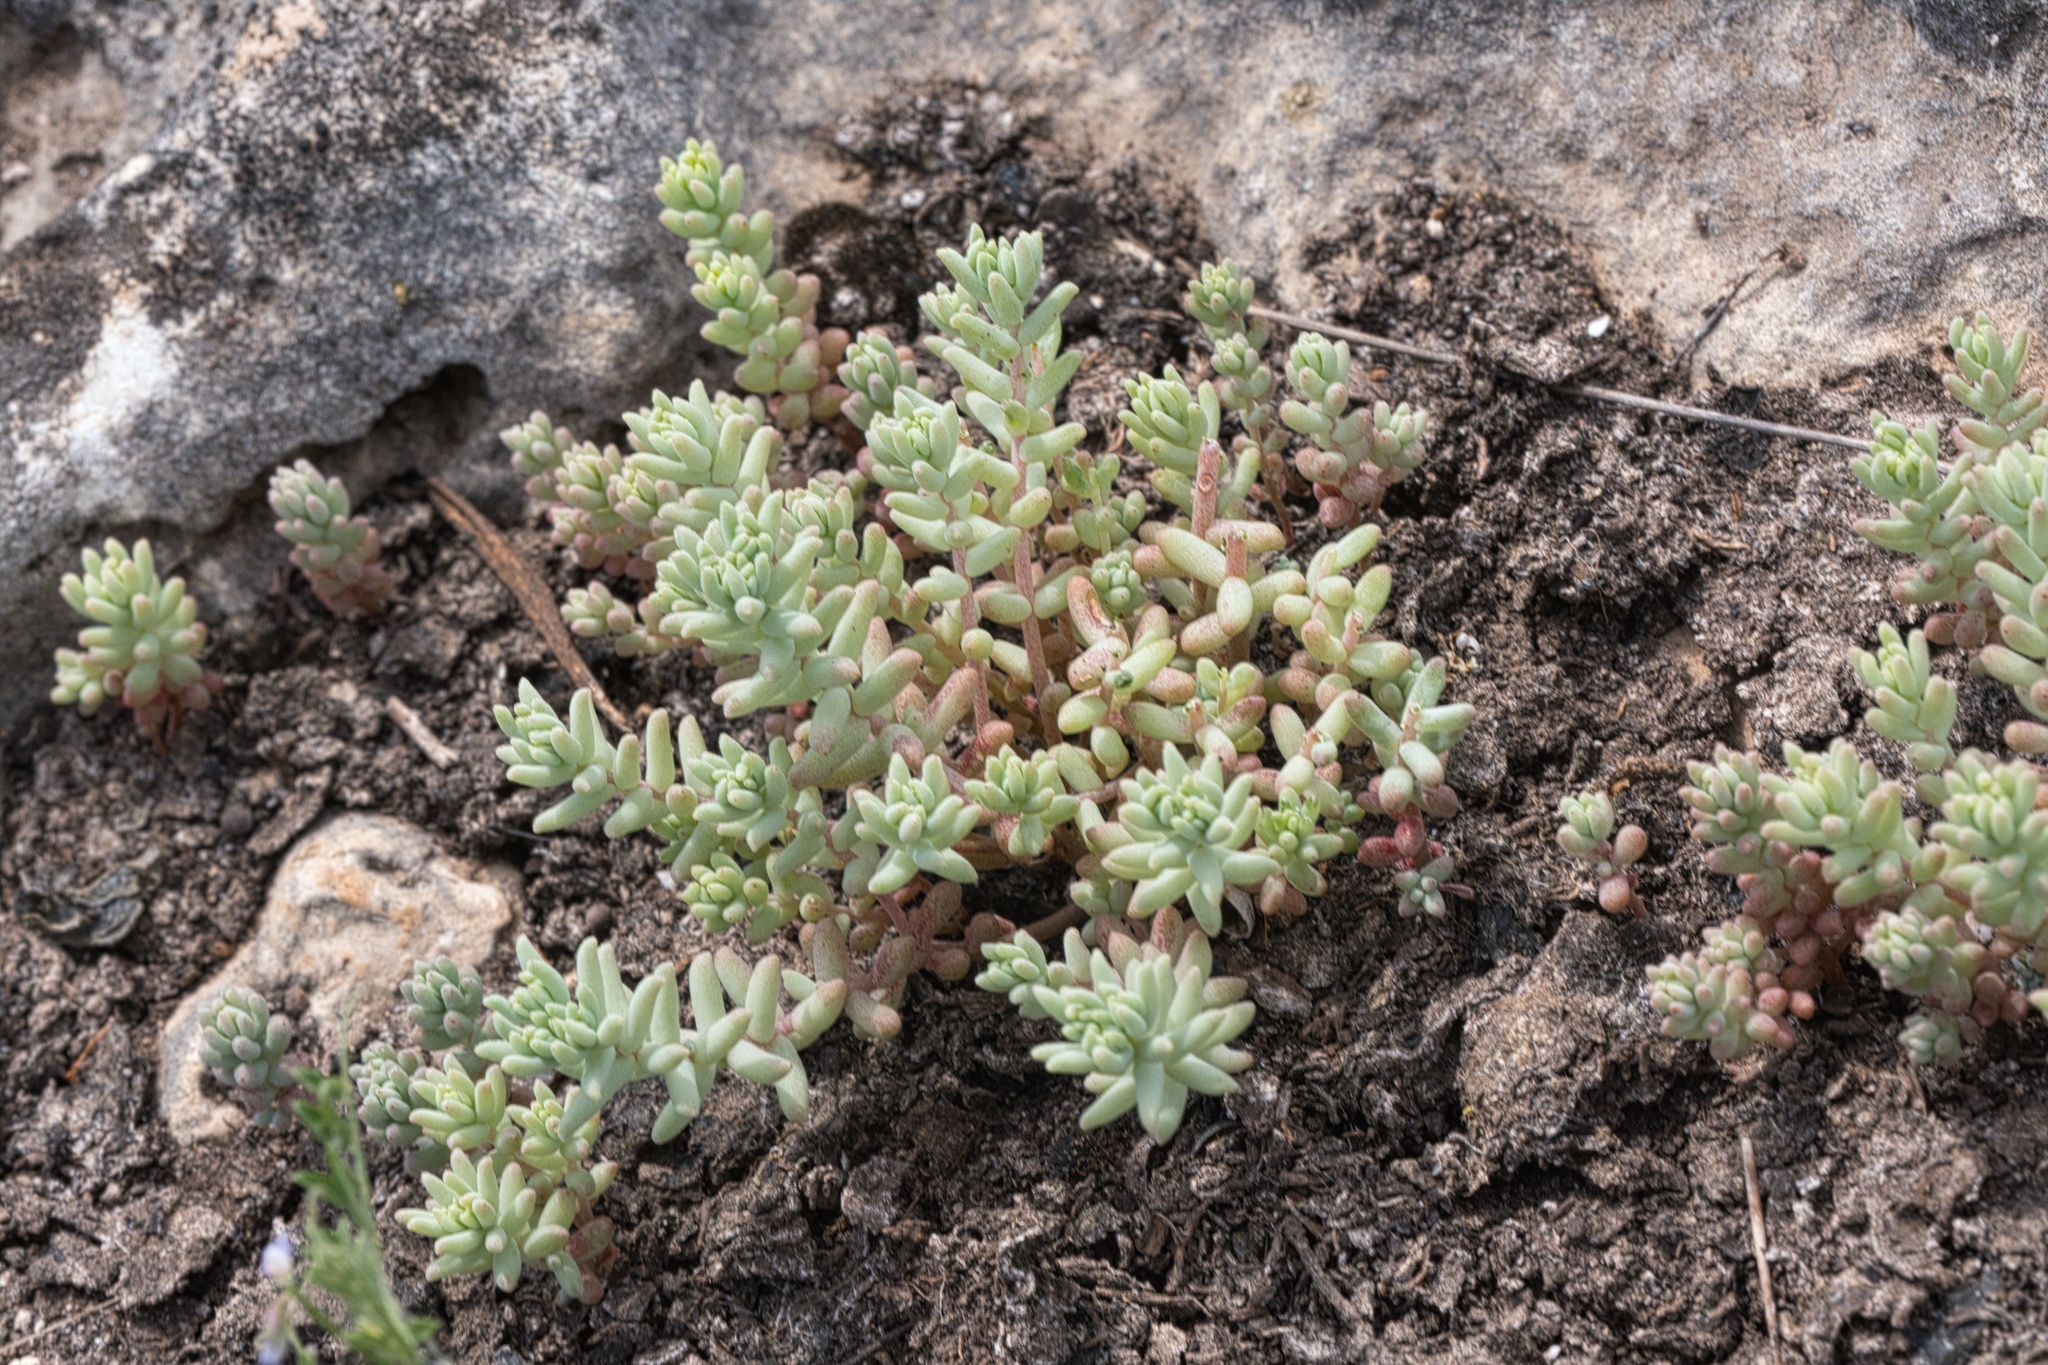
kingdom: Plantae
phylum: Tracheophyta
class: Magnoliopsida
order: Saxifragales
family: Crassulaceae
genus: Sedum
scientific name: Sedum nuttallii
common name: Yellow stonecrop
